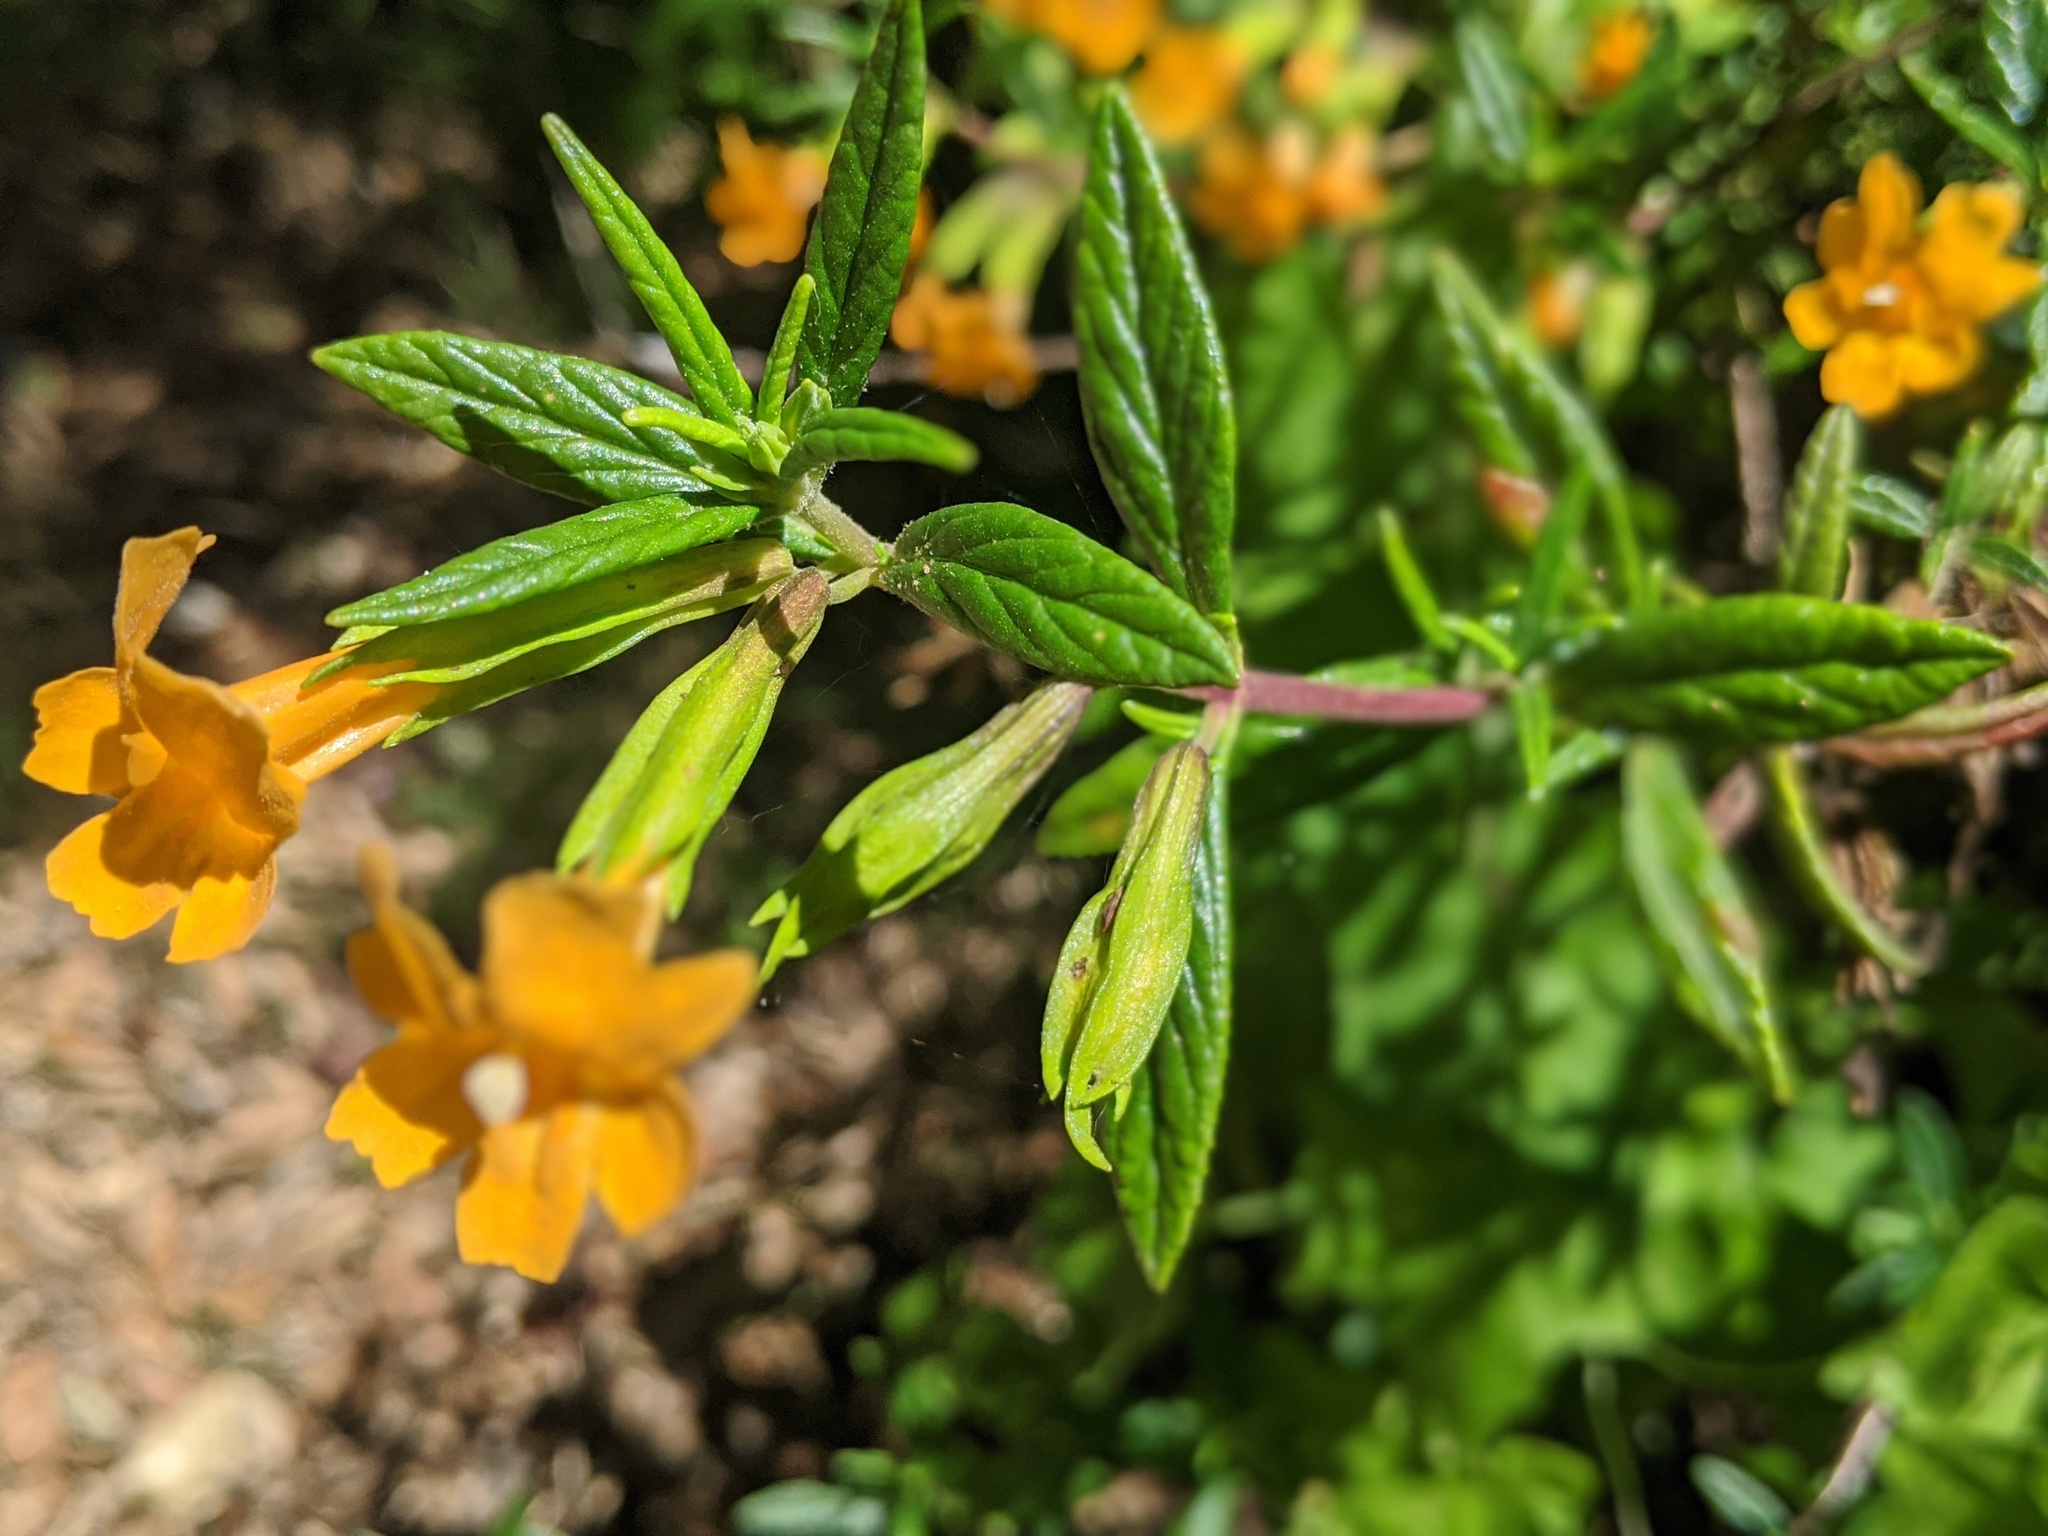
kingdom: Plantae
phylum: Tracheophyta
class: Magnoliopsida
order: Lamiales
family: Phrymaceae
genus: Diplacus
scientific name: Diplacus aurantiacus
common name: Bush monkey-flower
